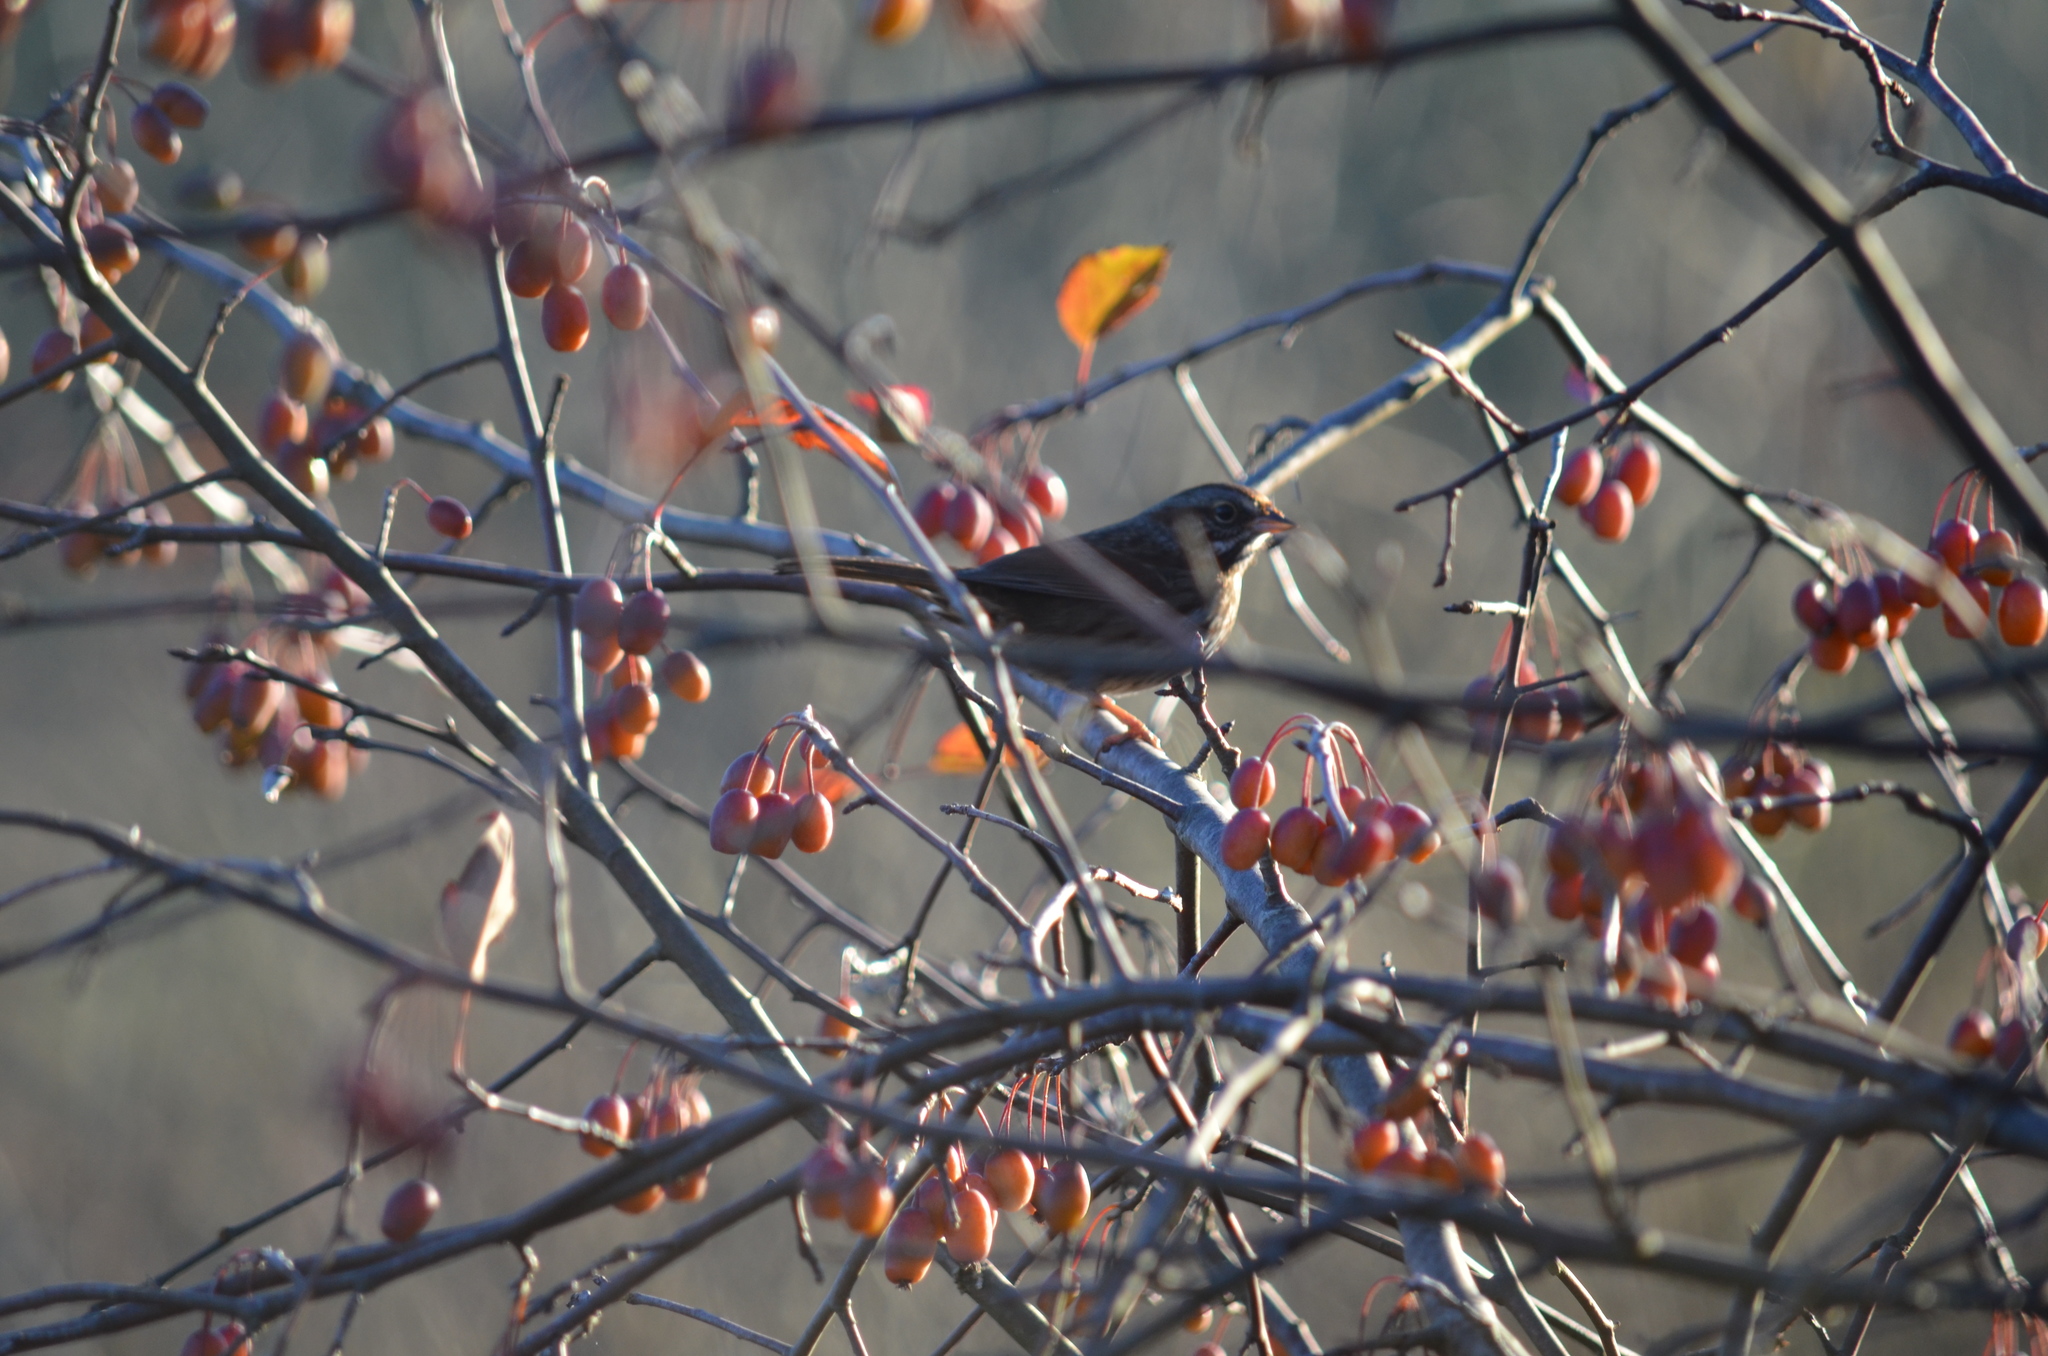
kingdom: Animalia
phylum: Chordata
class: Aves
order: Passeriformes
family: Passerellidae
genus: Melospiza
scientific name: Melospiza melodia
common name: Song sparrow
